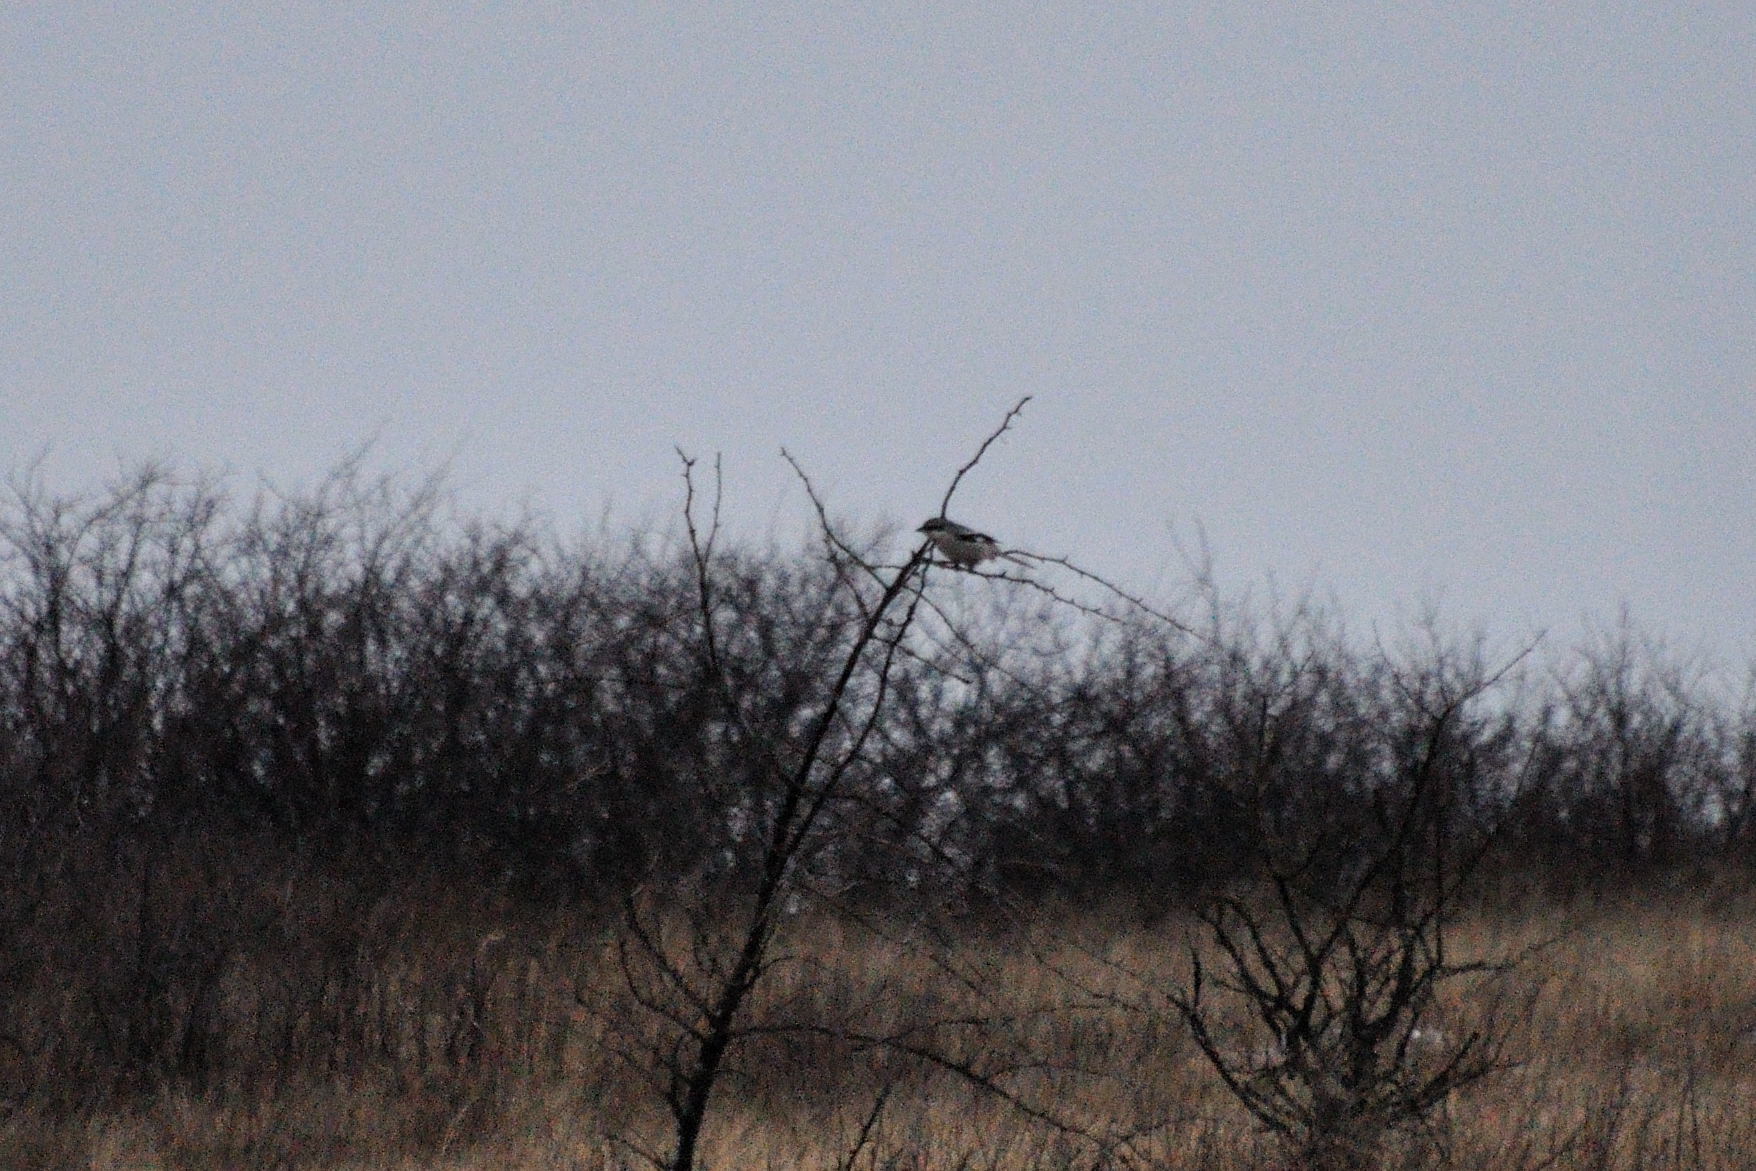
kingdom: Animalia
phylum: Chordata
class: Aves
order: Passeriformes
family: Laniidae
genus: Lanius
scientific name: Lanius excubitor
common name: Great grey shrike
